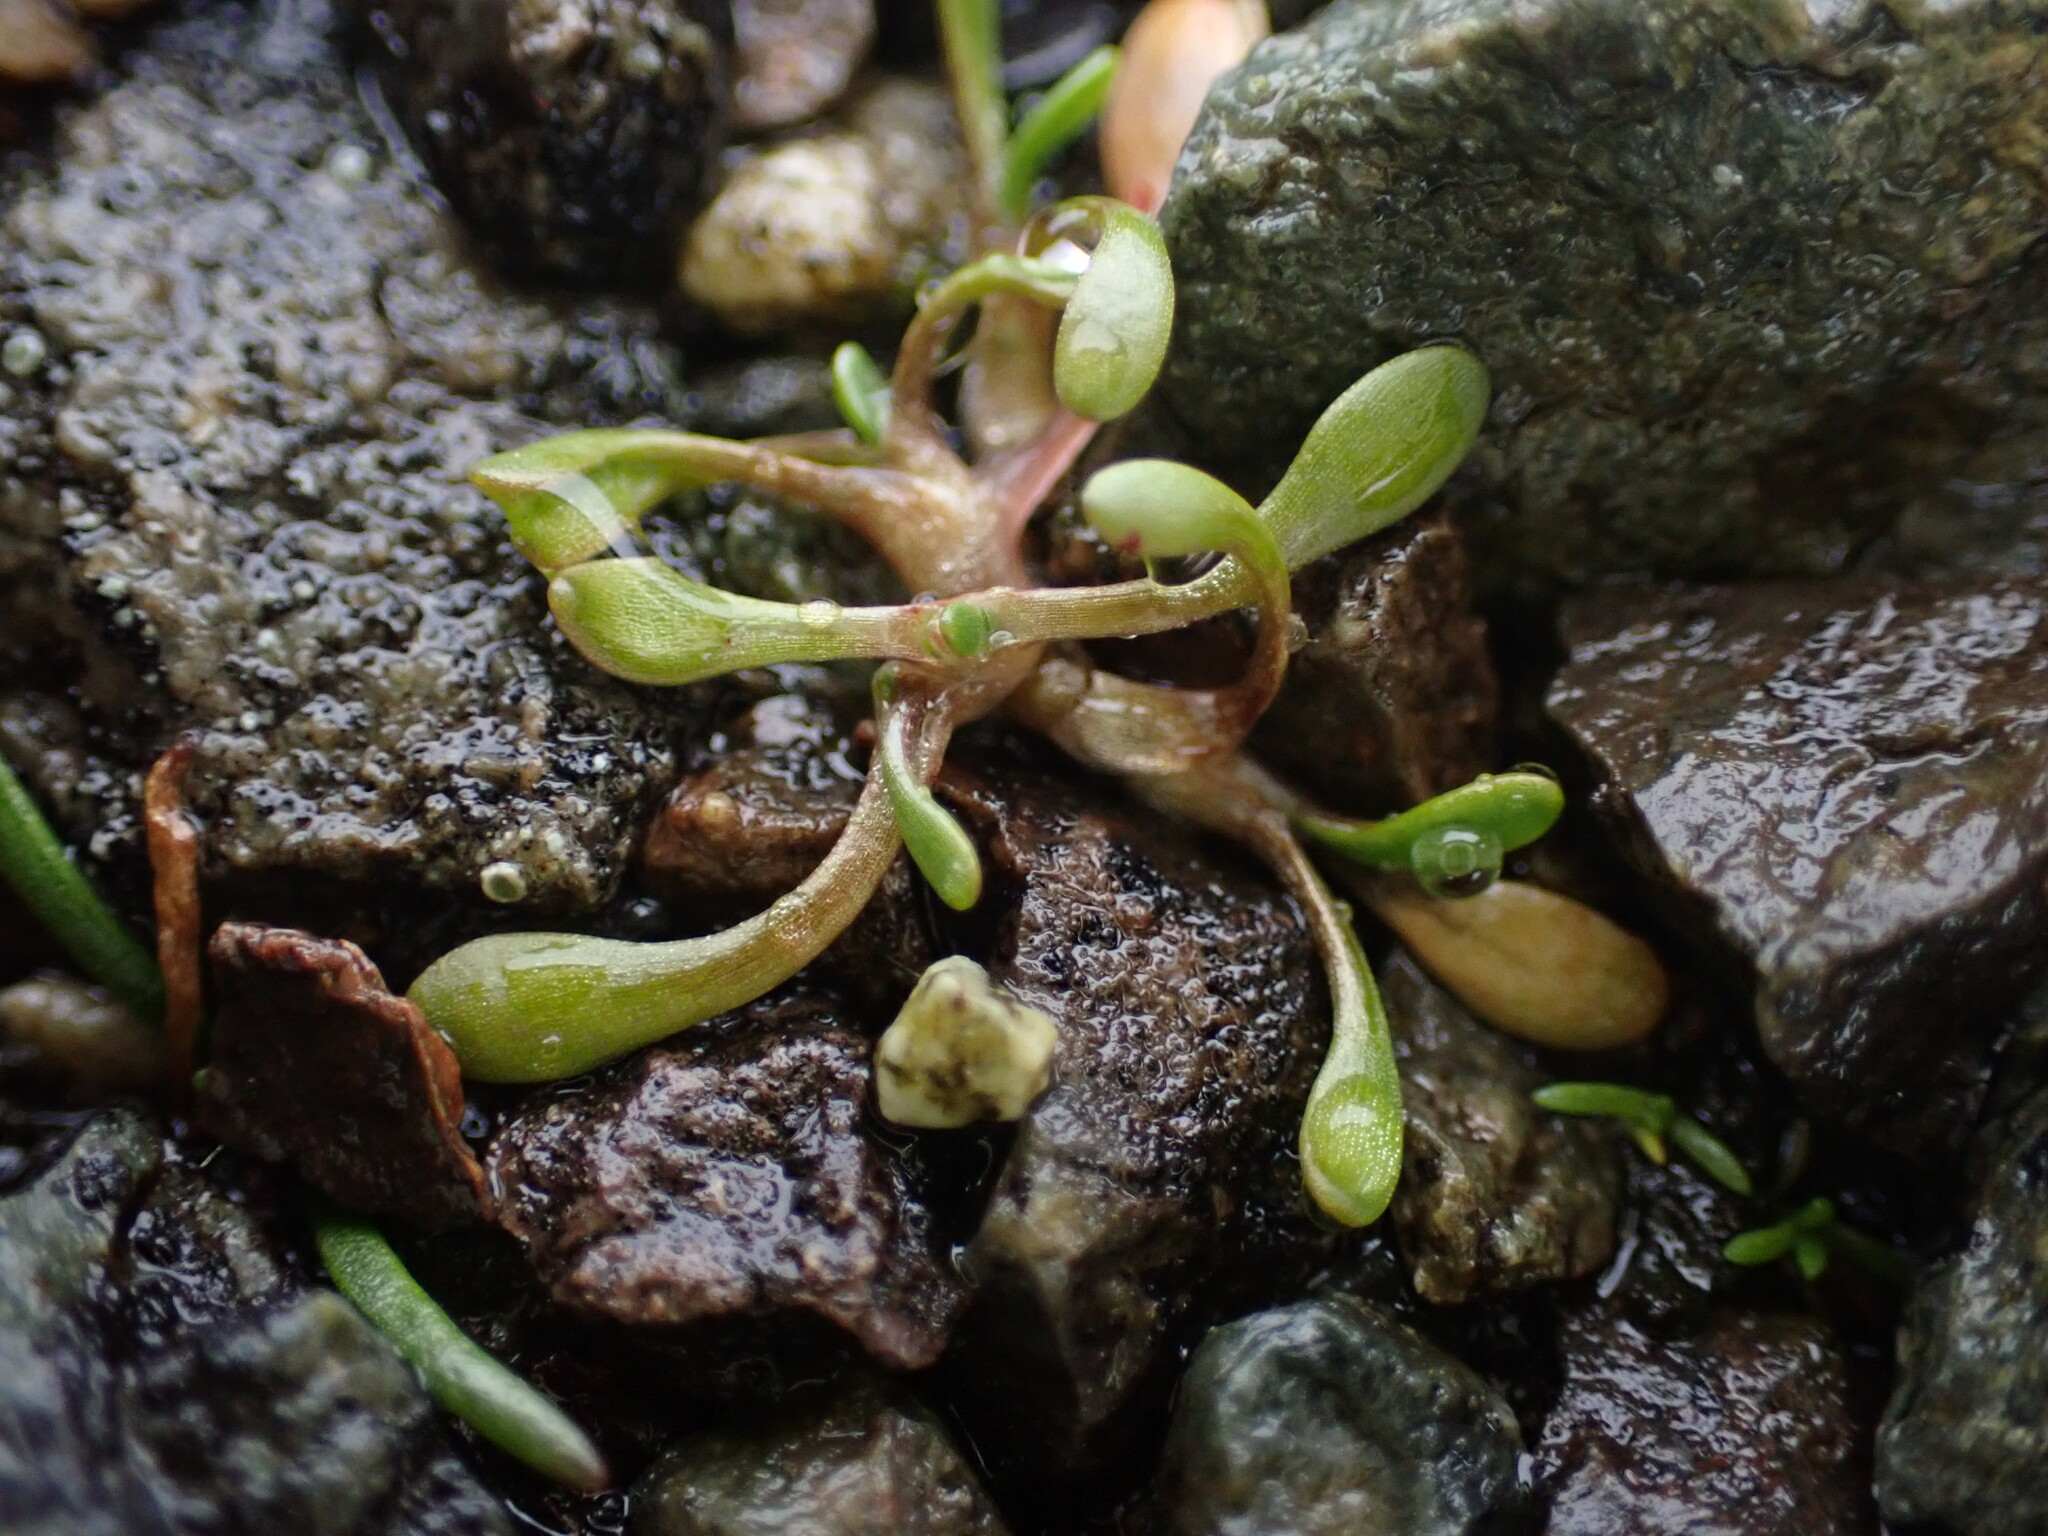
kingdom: Plantae
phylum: Tracheophyta
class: Magnoliopsida
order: Caryophyllales
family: Montiaceae
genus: Montia
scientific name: Montia howellii
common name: Howell's miner's-lettuce
